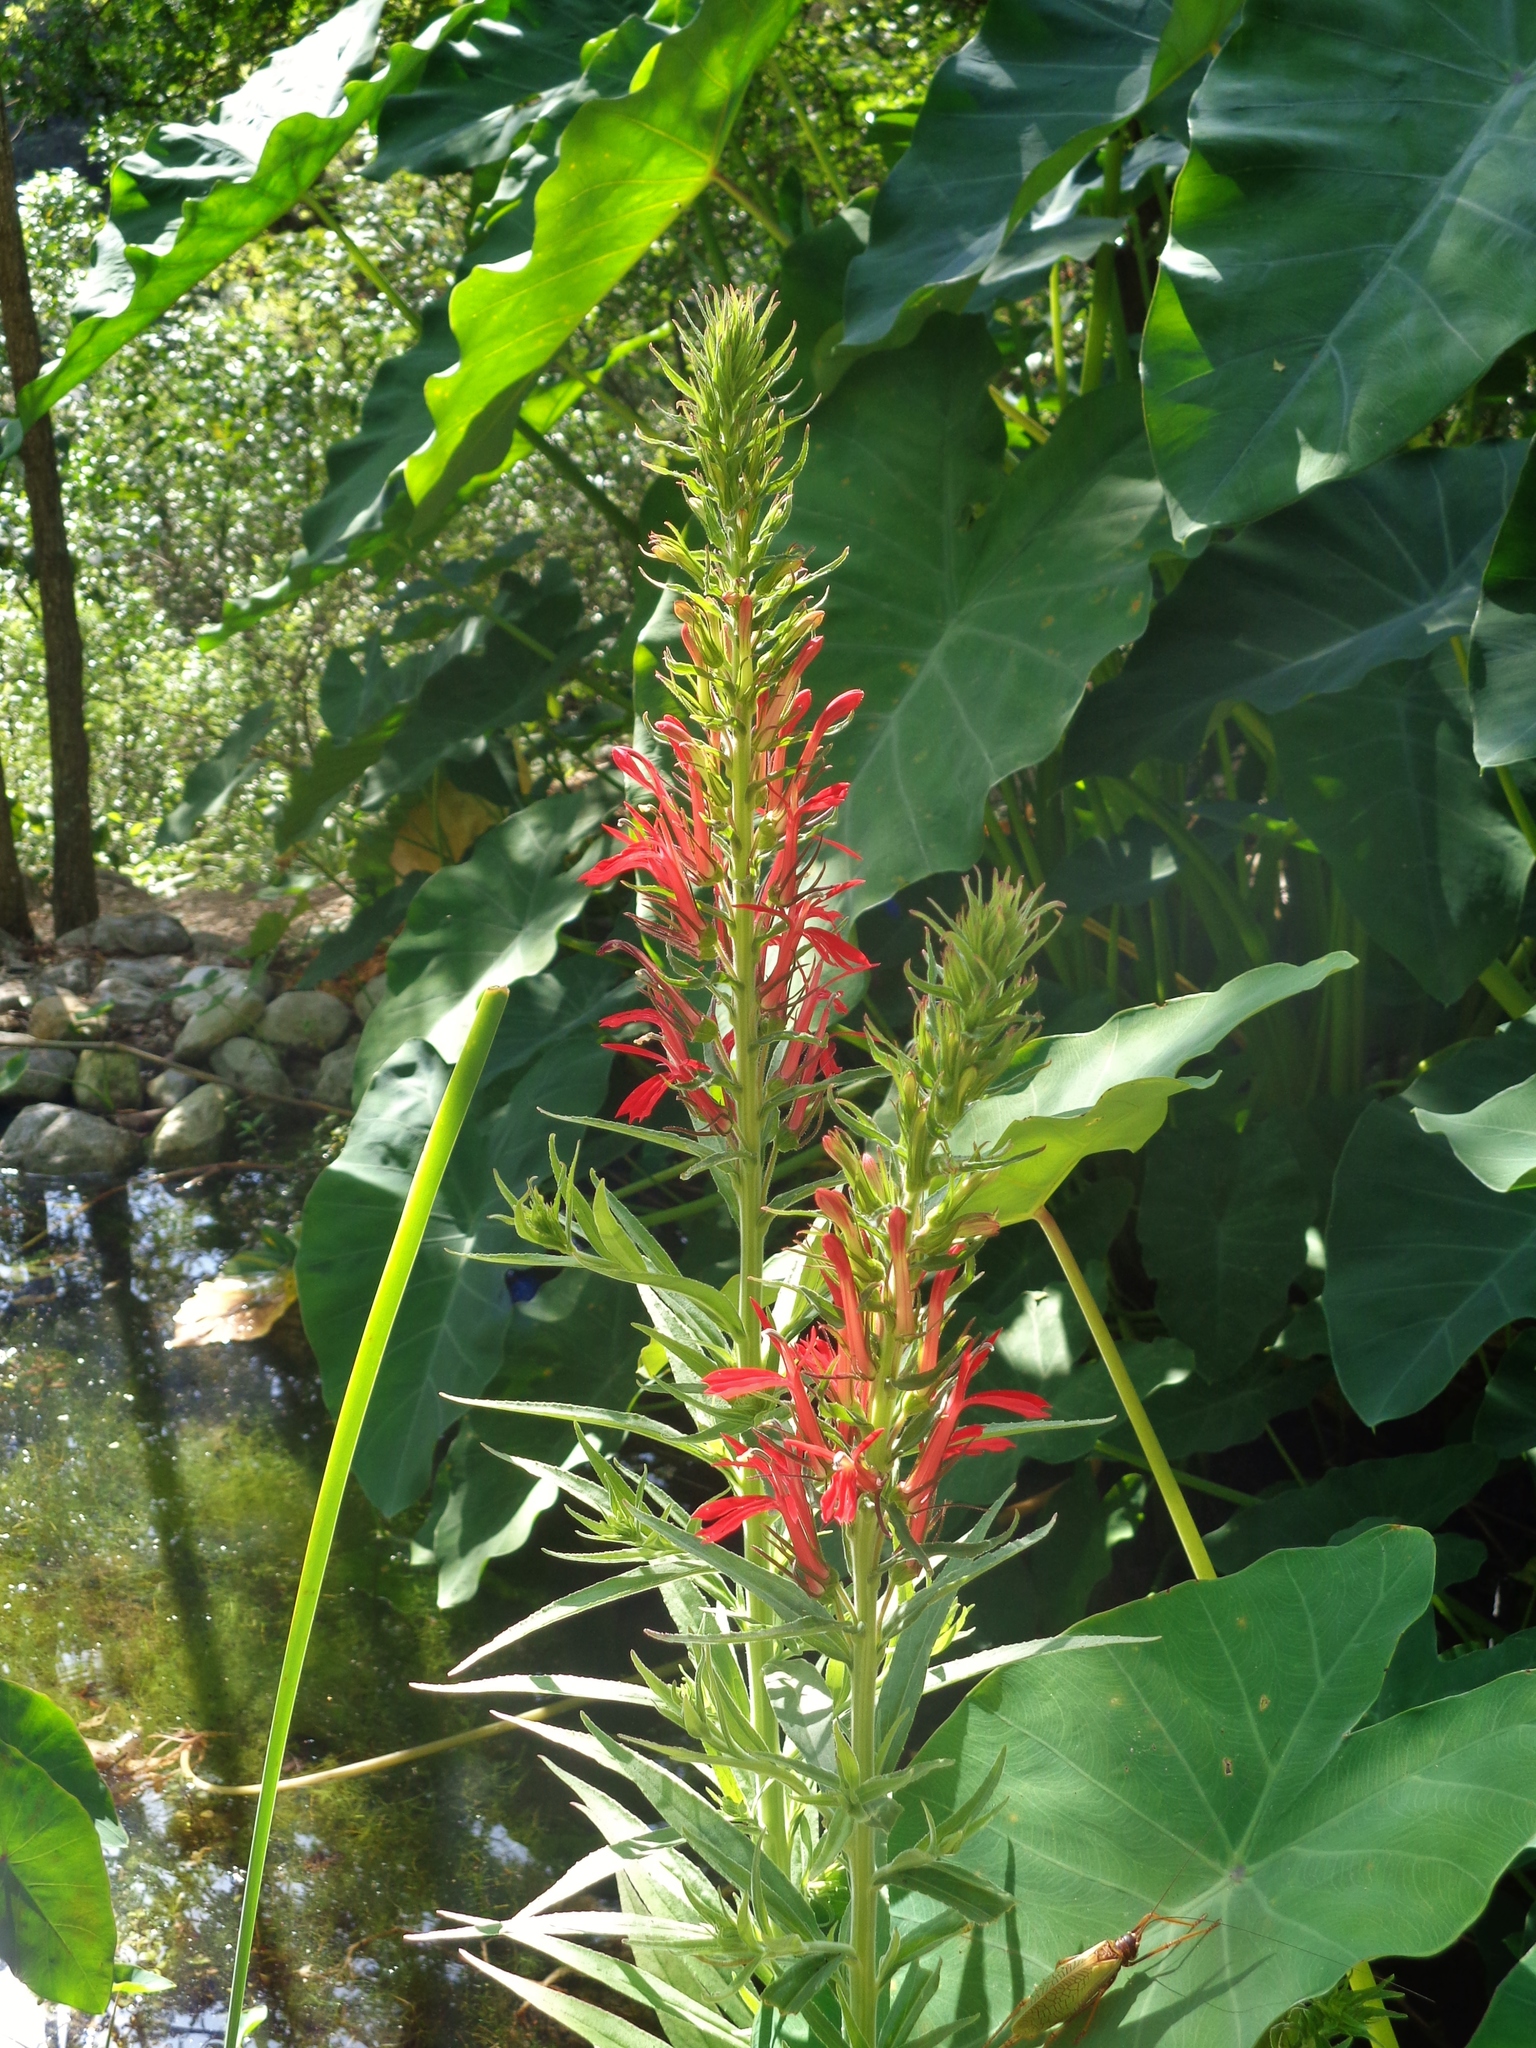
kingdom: Plantae
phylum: Tracheophyta
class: Magnoliopsida
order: Asterales
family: Campanulaceae
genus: Lobelia
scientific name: Lobelia cardinalis
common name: Cardinal flower
